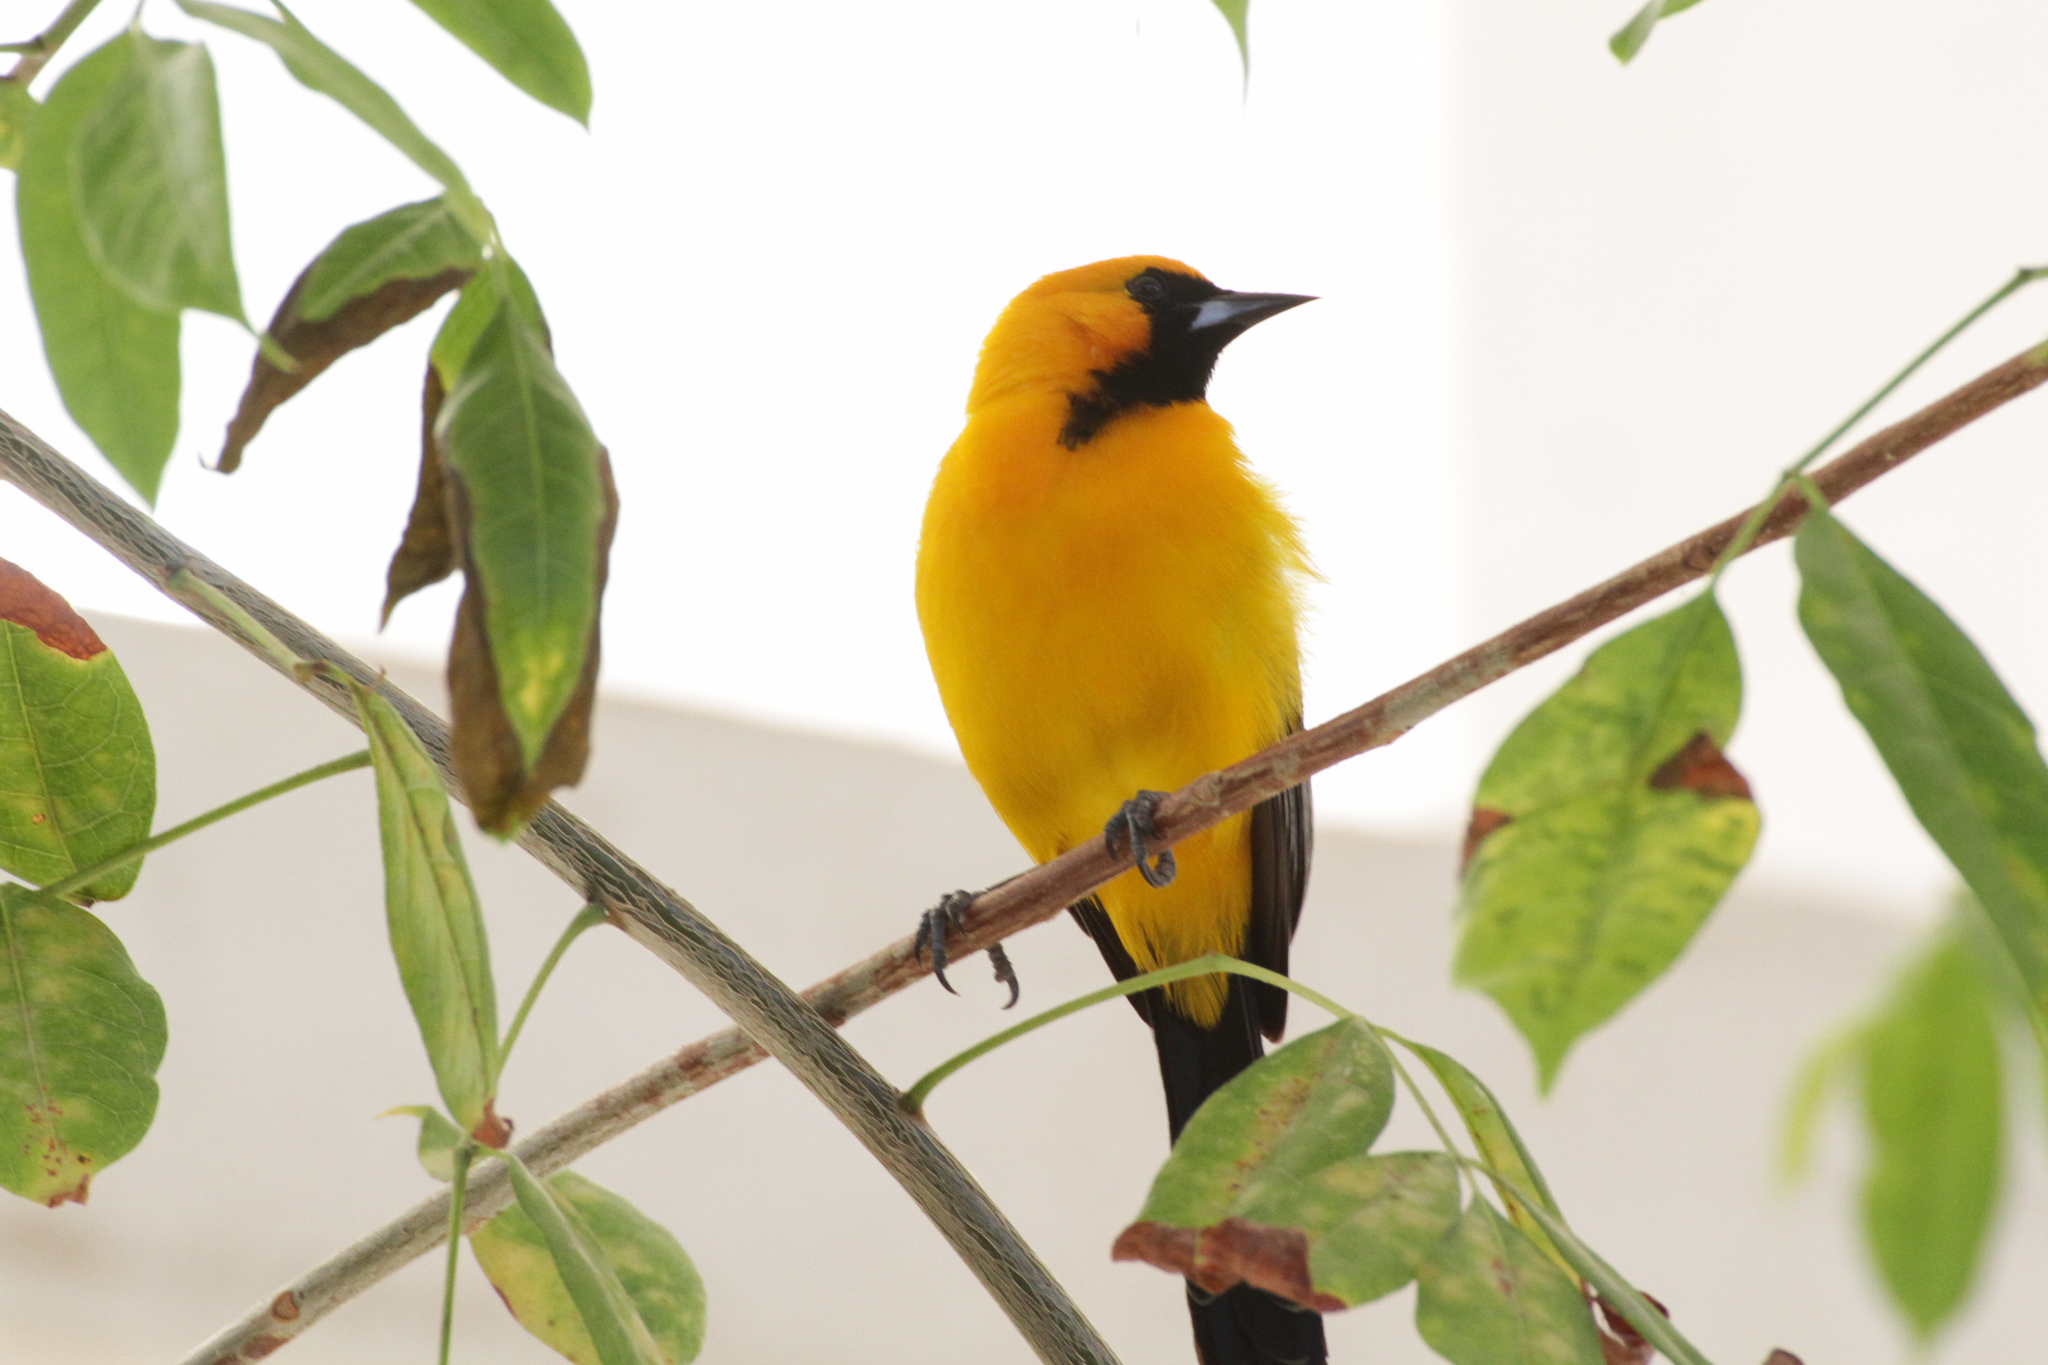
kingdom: Animalia
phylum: Chordata
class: Aves
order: Passeriformes
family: Icteridae
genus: Icterus
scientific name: Icterus cucullatus
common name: Hooded oriole
